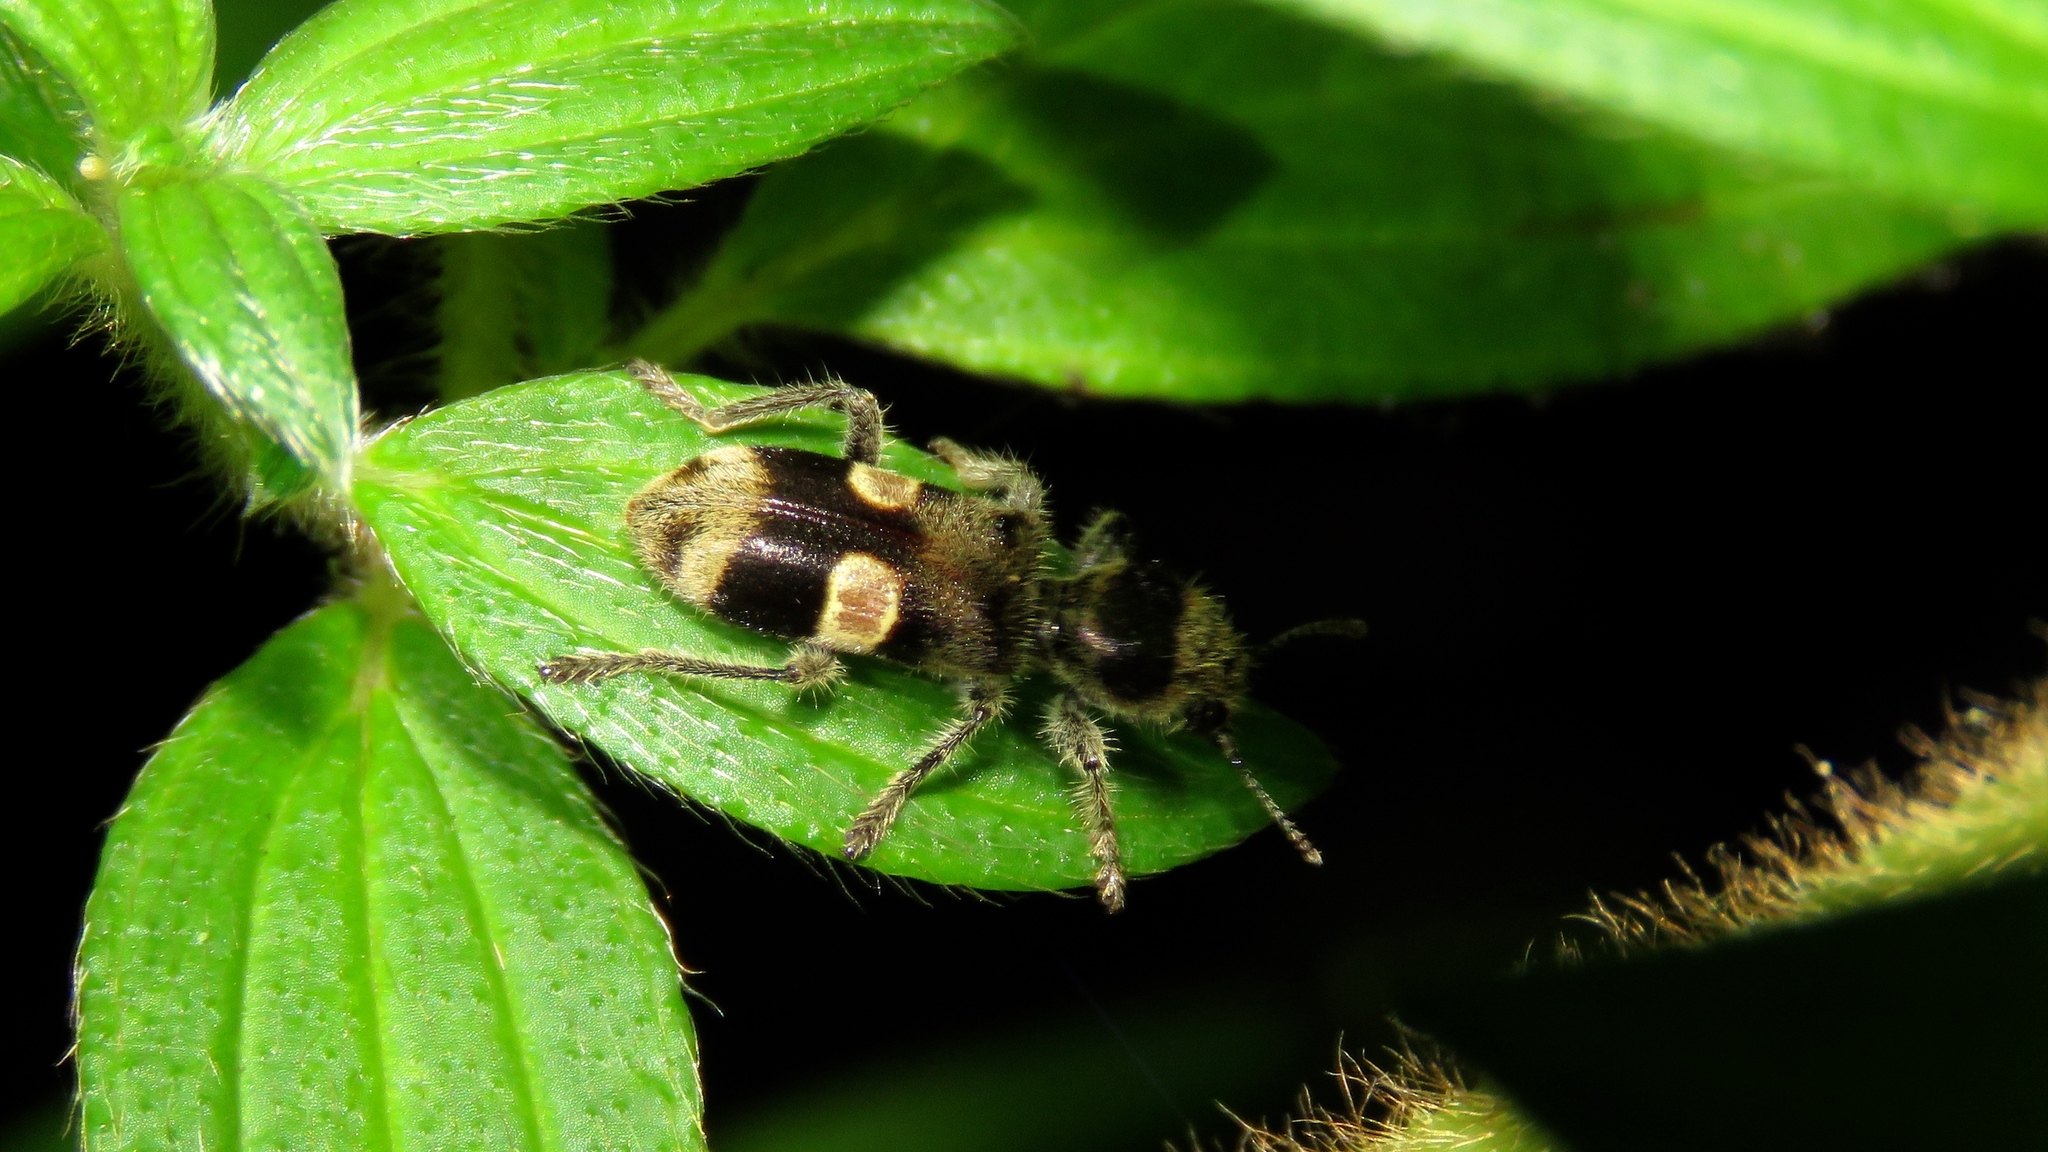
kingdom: Animalia
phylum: Arthropoda
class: Insecta
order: Coleoptera
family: Cleridae
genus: Enoclerus
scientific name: Enoclerus
